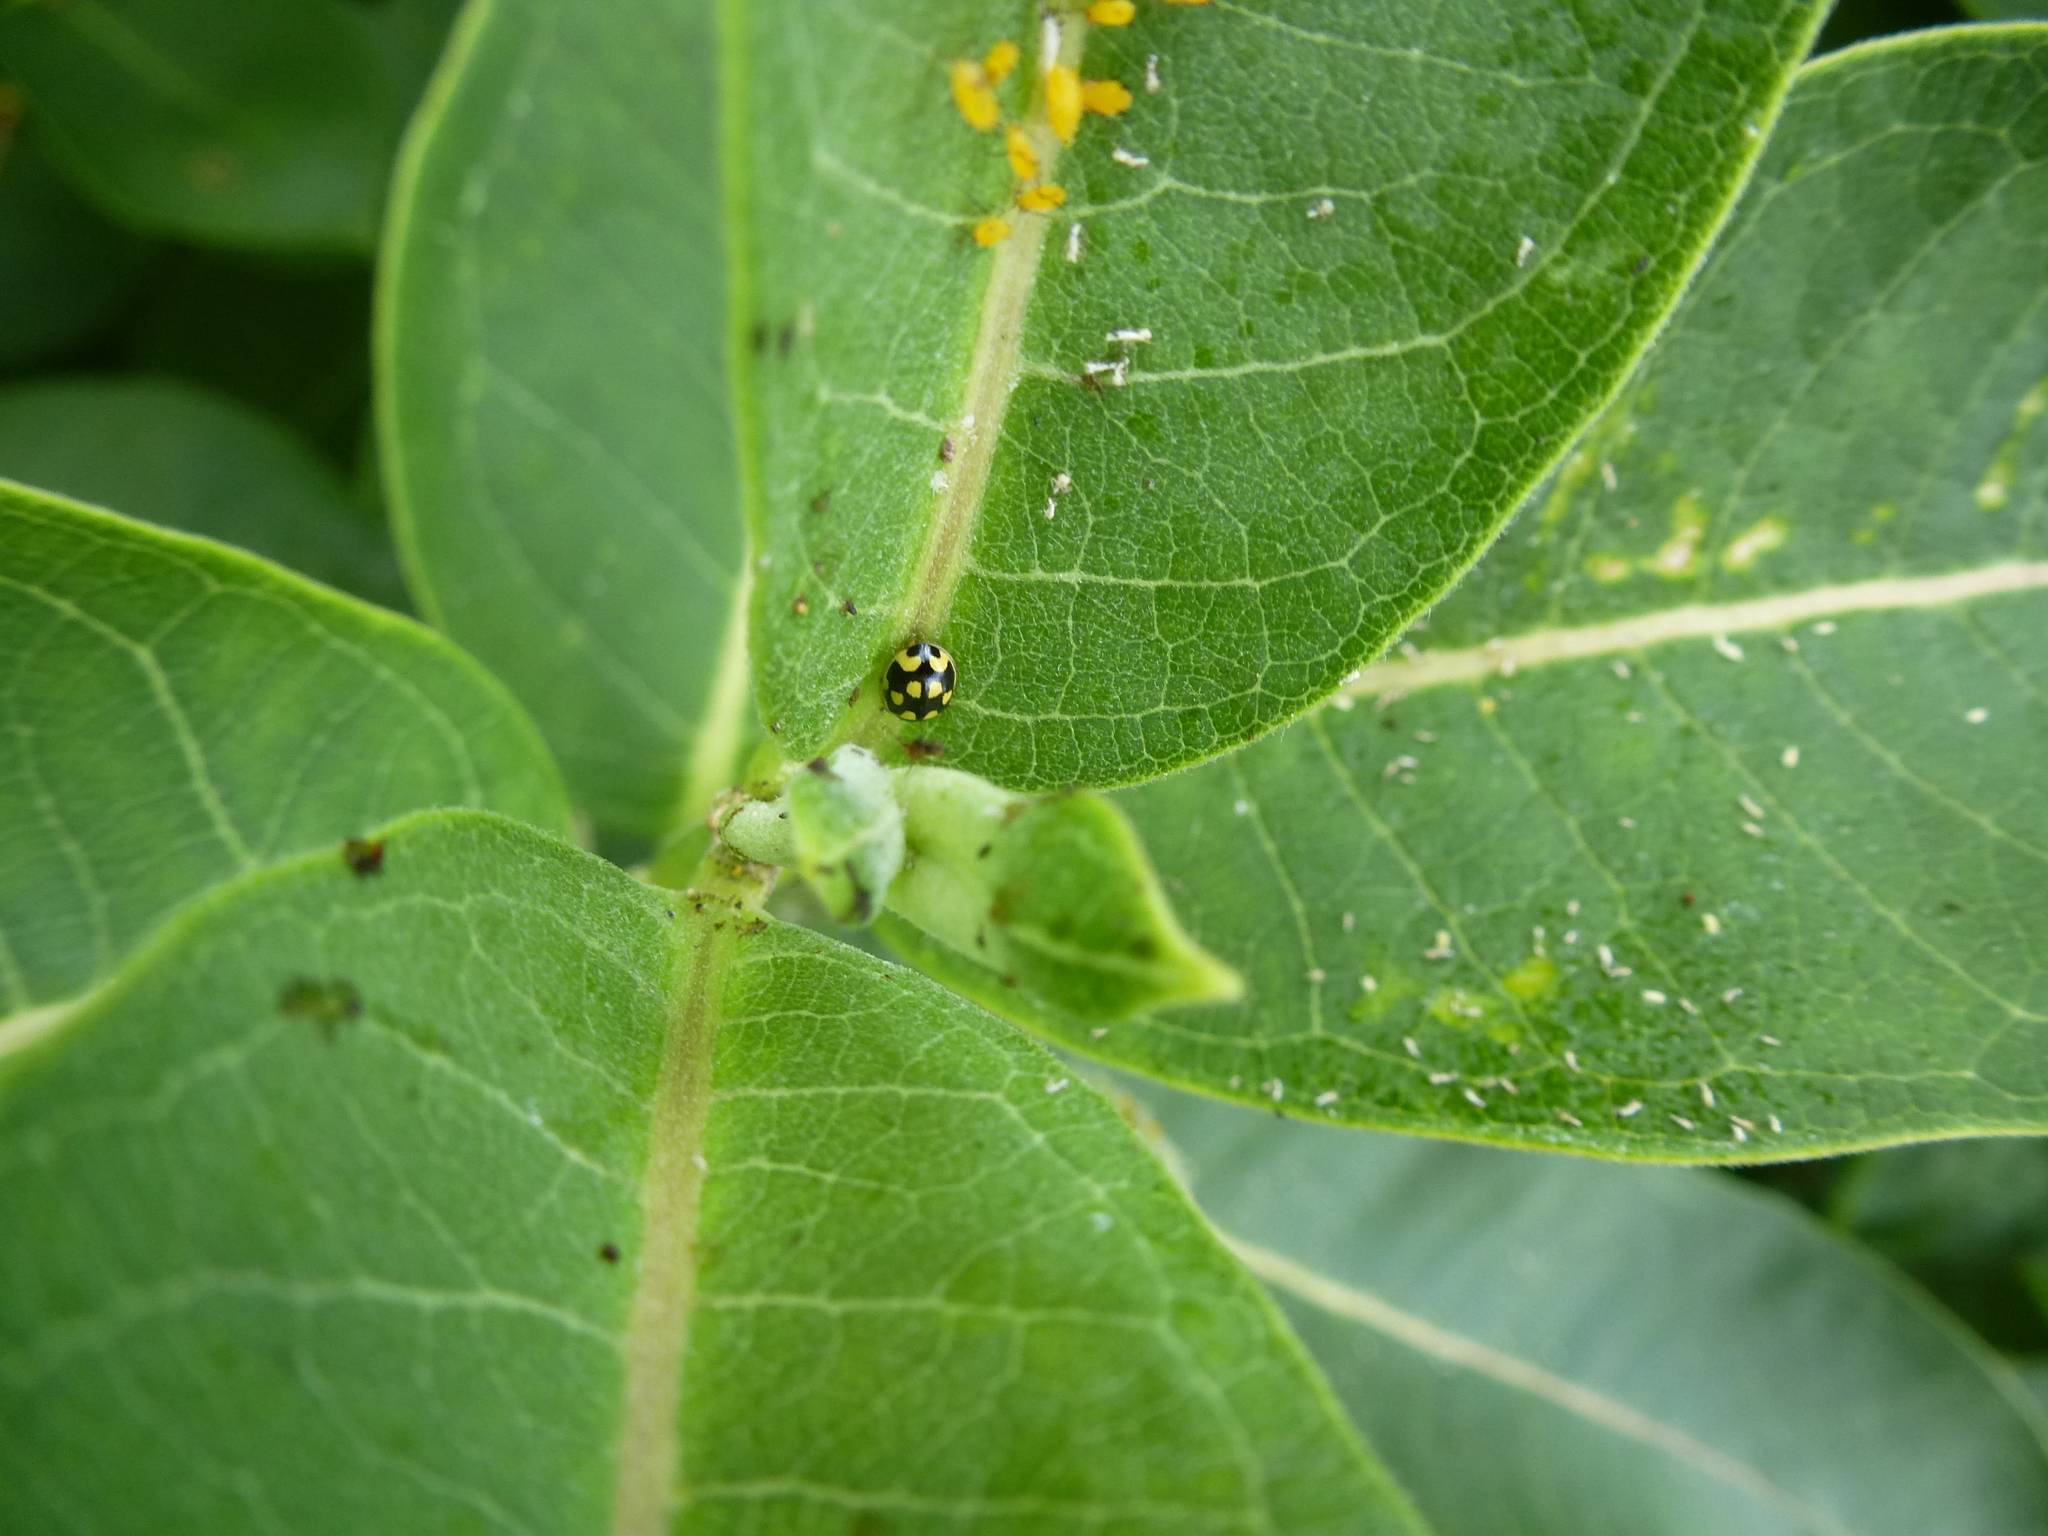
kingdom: Animalia
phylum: Arthropoda
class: Insecta
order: Coleoptera
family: Coccinellidae
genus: Propylaea
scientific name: Propylaea quatuordecimpunctata
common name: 14-spotted ladybird beetle
